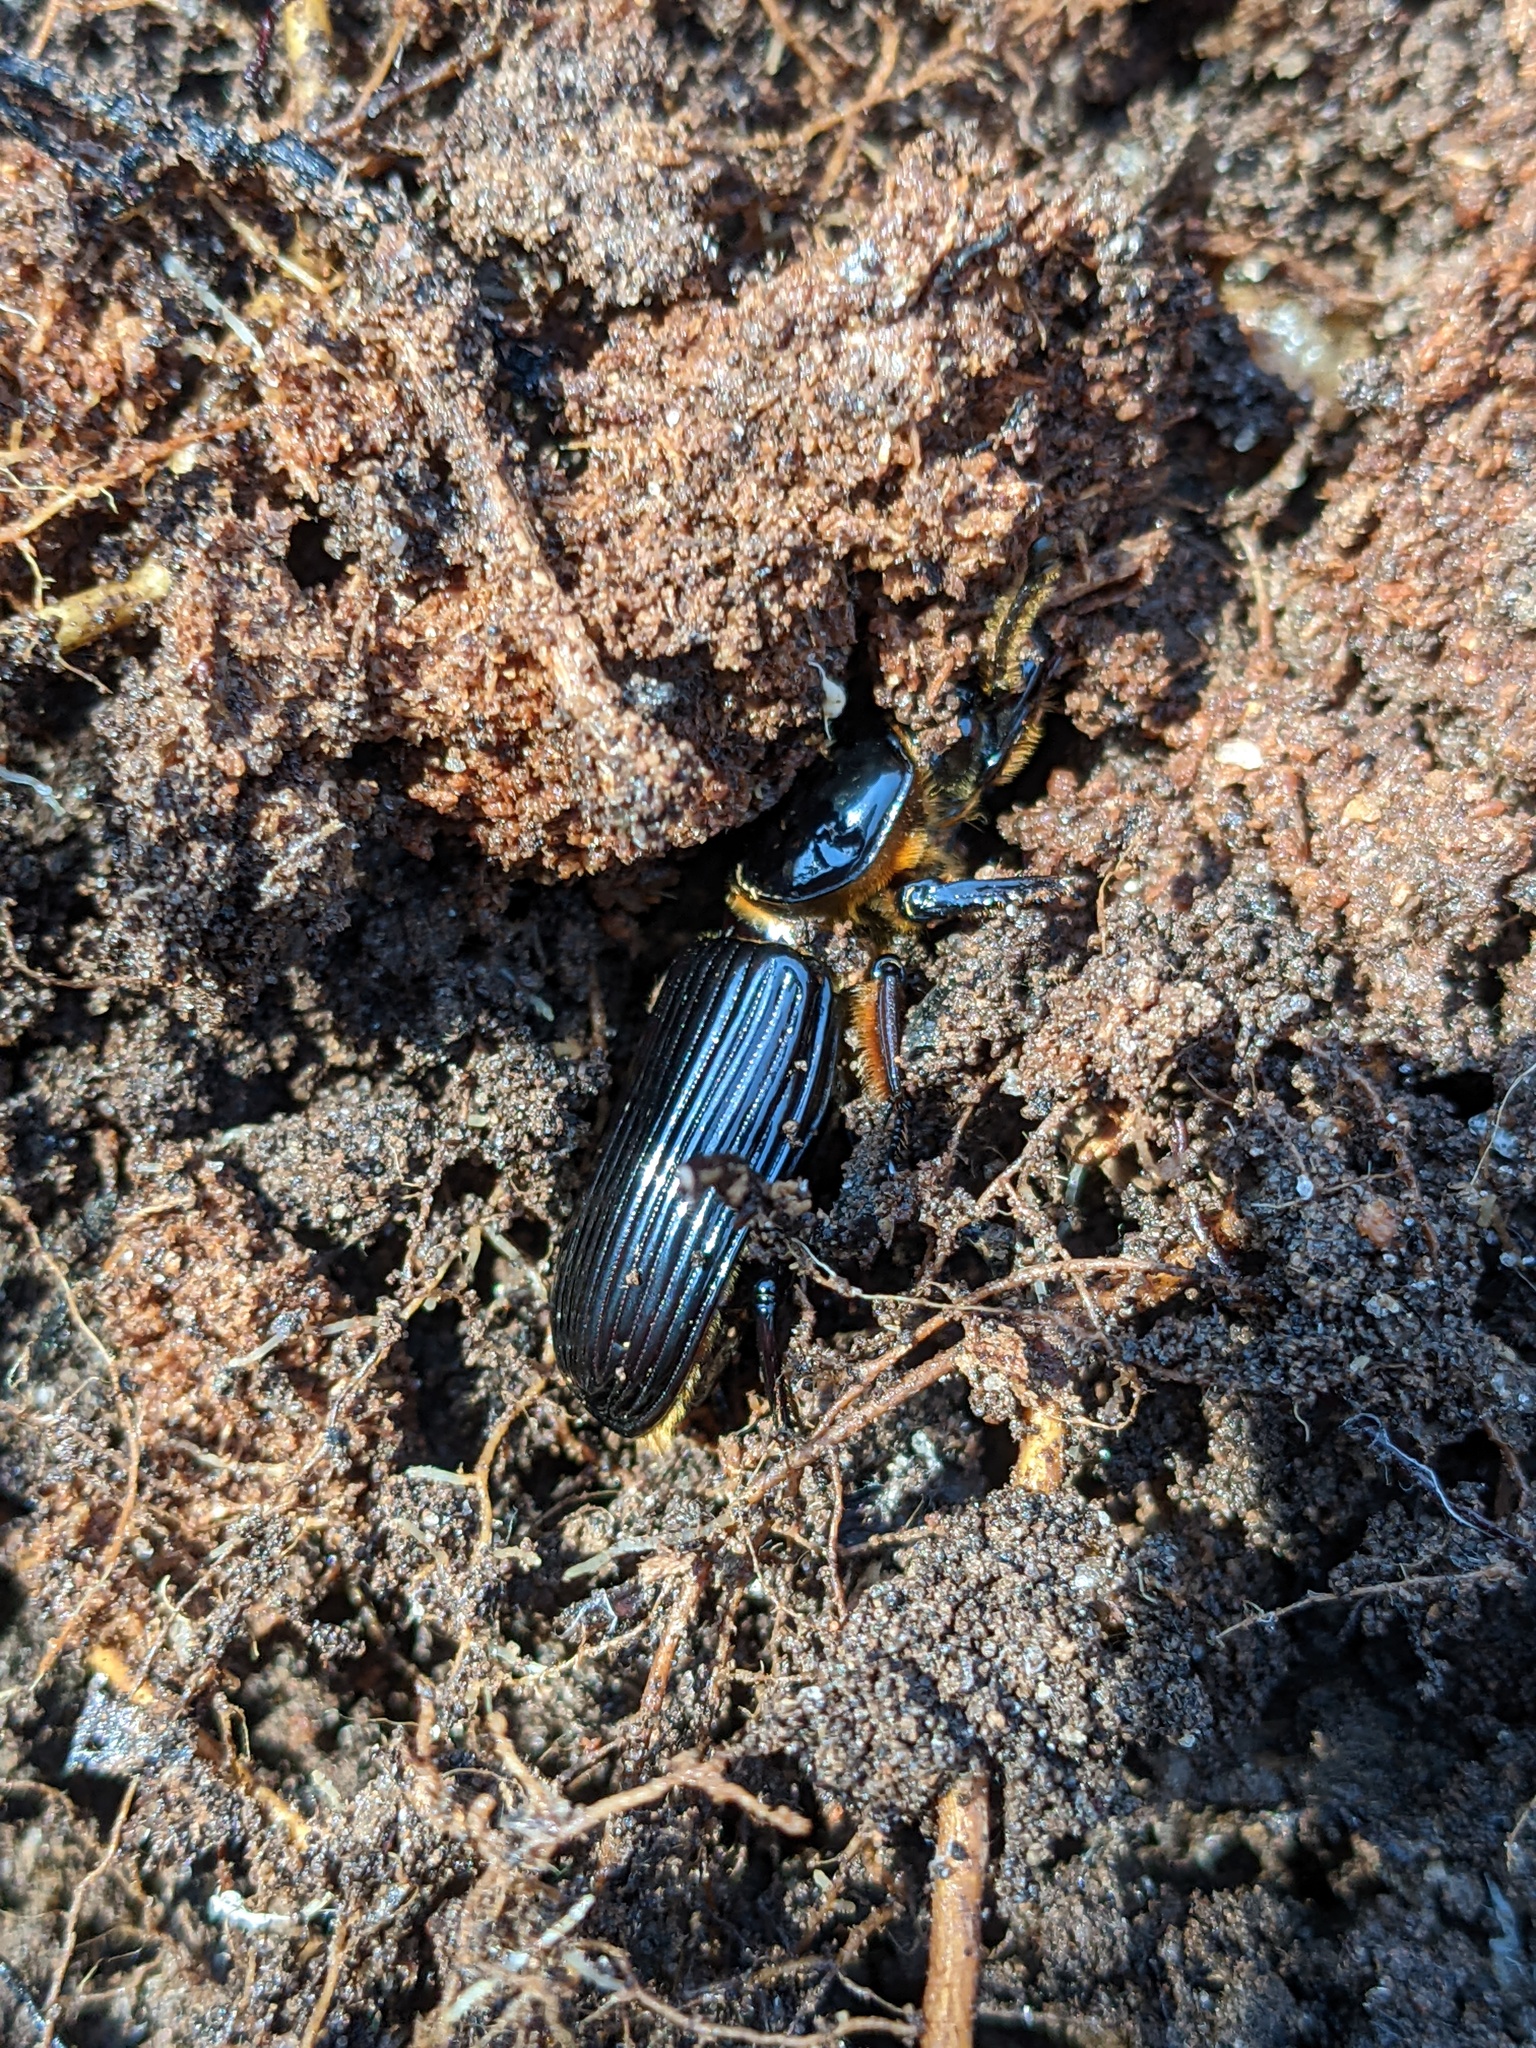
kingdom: Animalia
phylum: Arthropoda
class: Insecta
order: Coleoptera
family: Passalidae
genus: Odontotaenius
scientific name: Odontotaenius disjunctus
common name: Patent leather beetle
